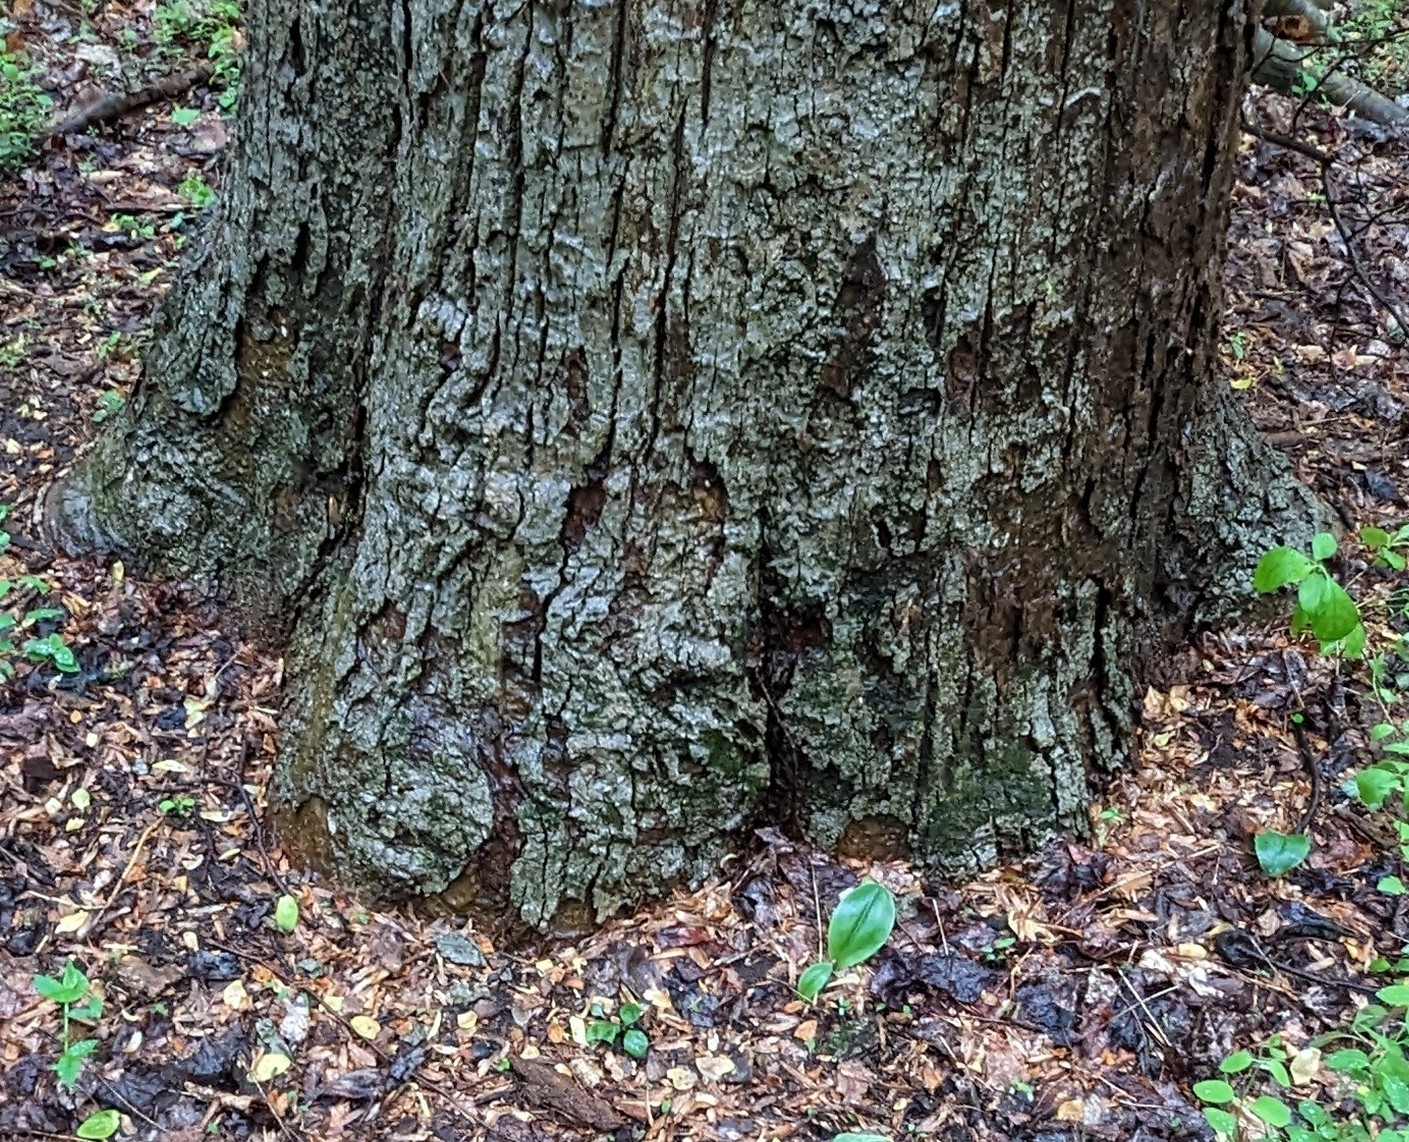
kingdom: Plantae
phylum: Tracheophyta
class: Liliopsida
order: Asparagales
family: Orchidaceae
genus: Galearis
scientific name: Galearis spectabilis
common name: Purple-hooded orchis
